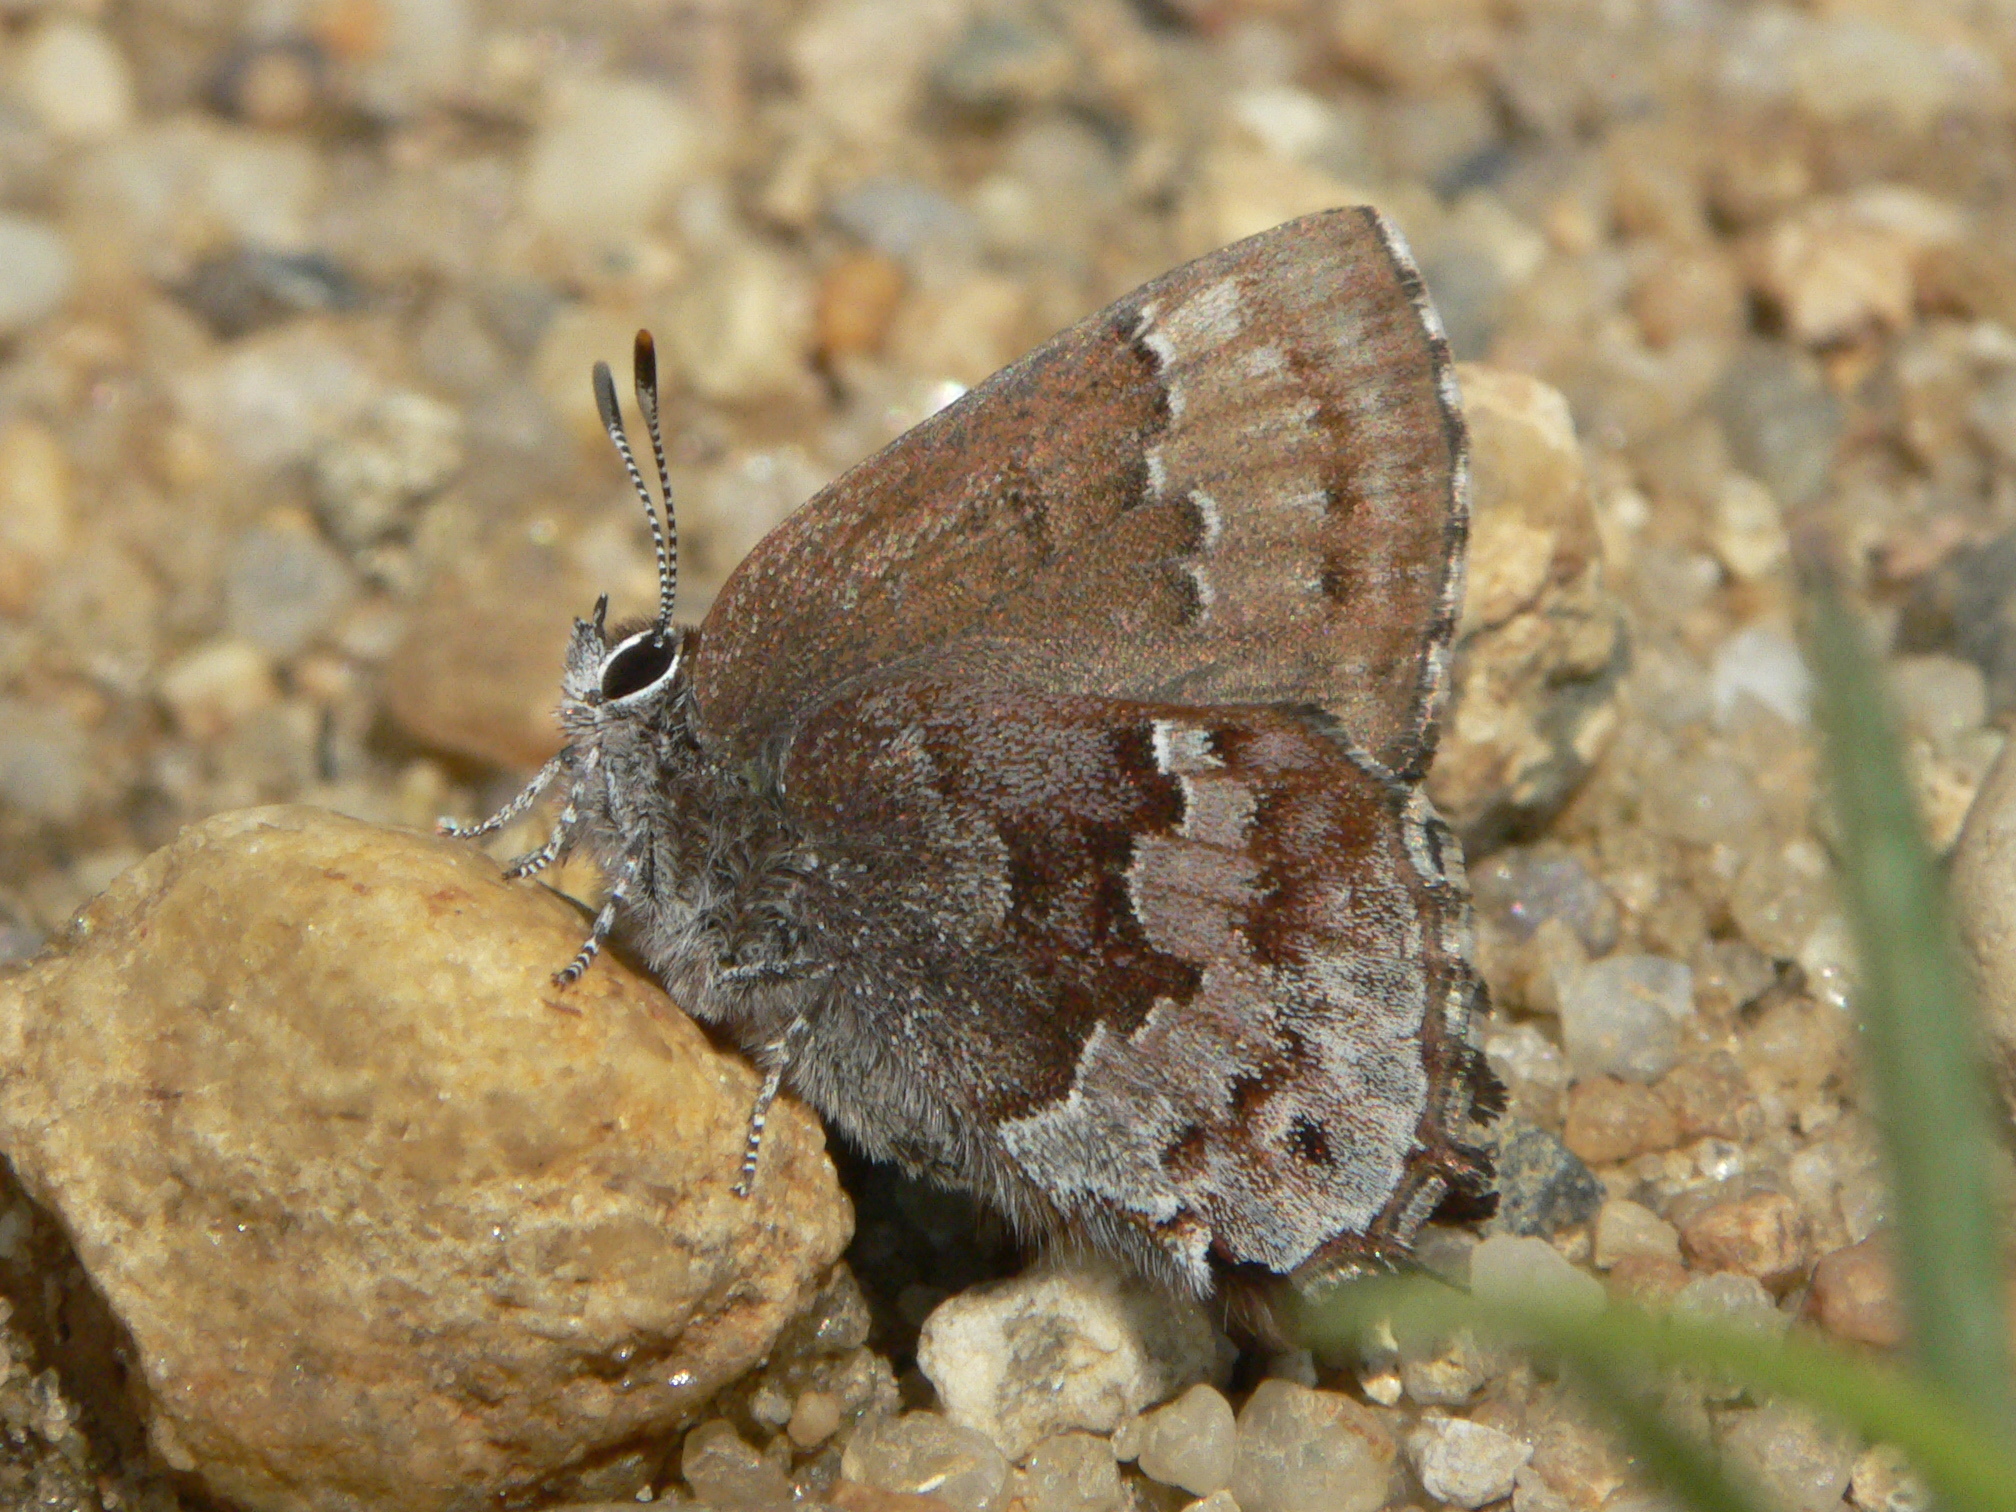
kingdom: Animalia
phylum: Arthropoda
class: Insecta
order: Lepidoptera
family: Lycaenidae
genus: Thecla
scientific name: Thecla irus
